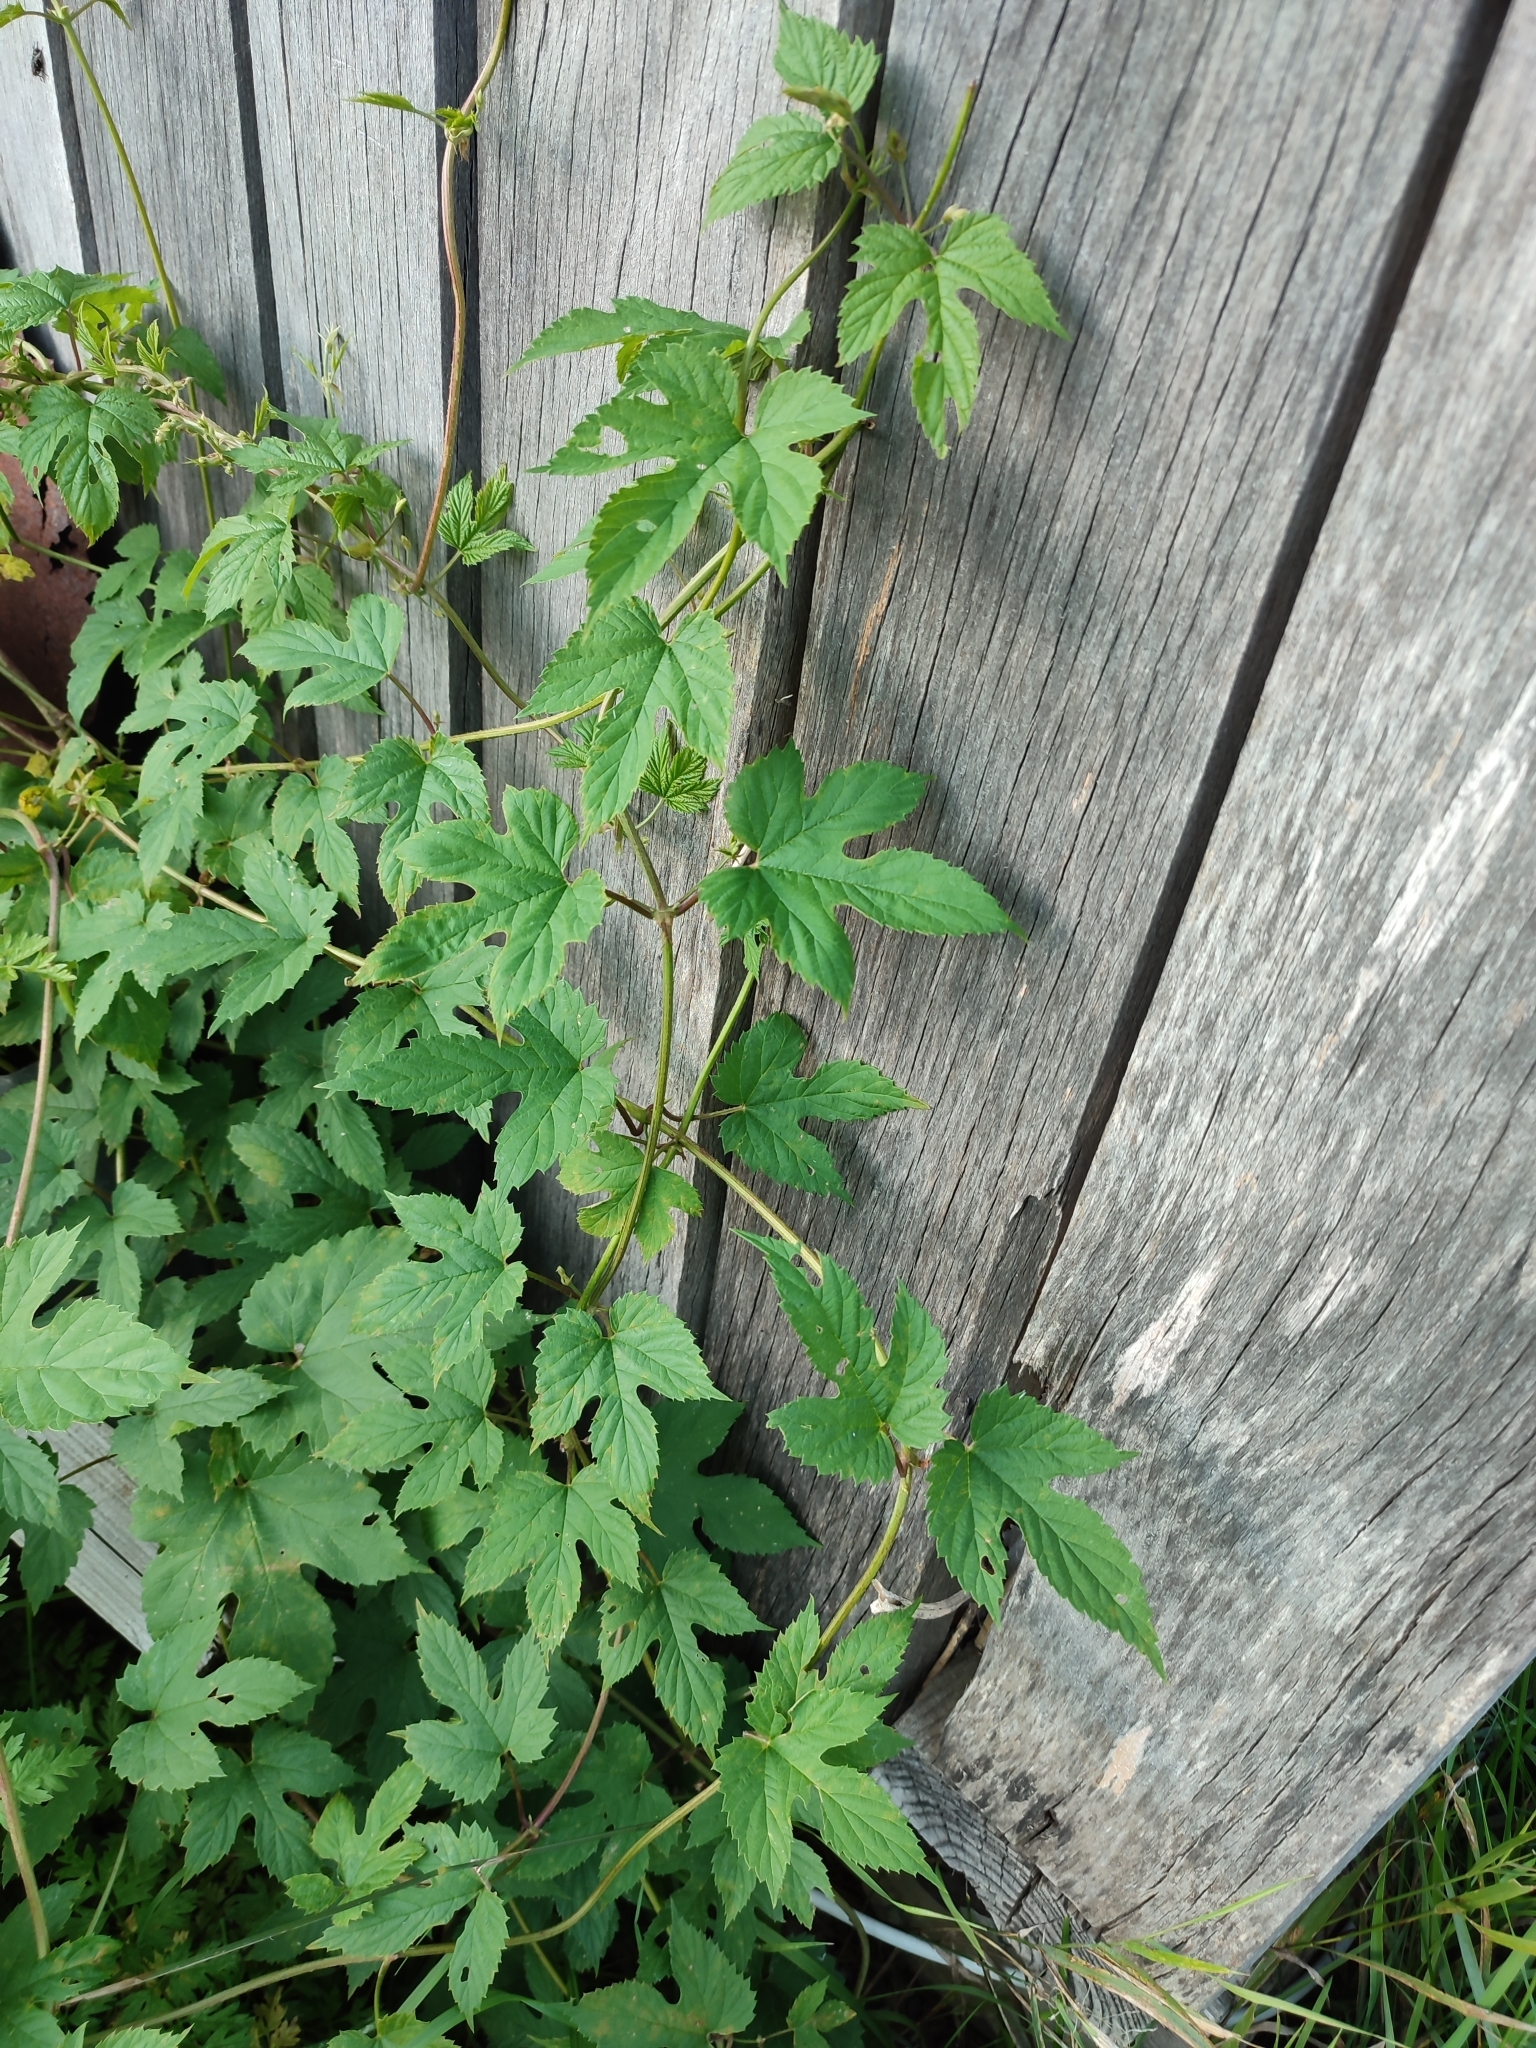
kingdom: Plantae
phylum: Tracheophyta
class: Magnoliopsida
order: Rosales
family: Cannabaceae
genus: Humulus
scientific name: Humulus lupulus
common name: Hop
